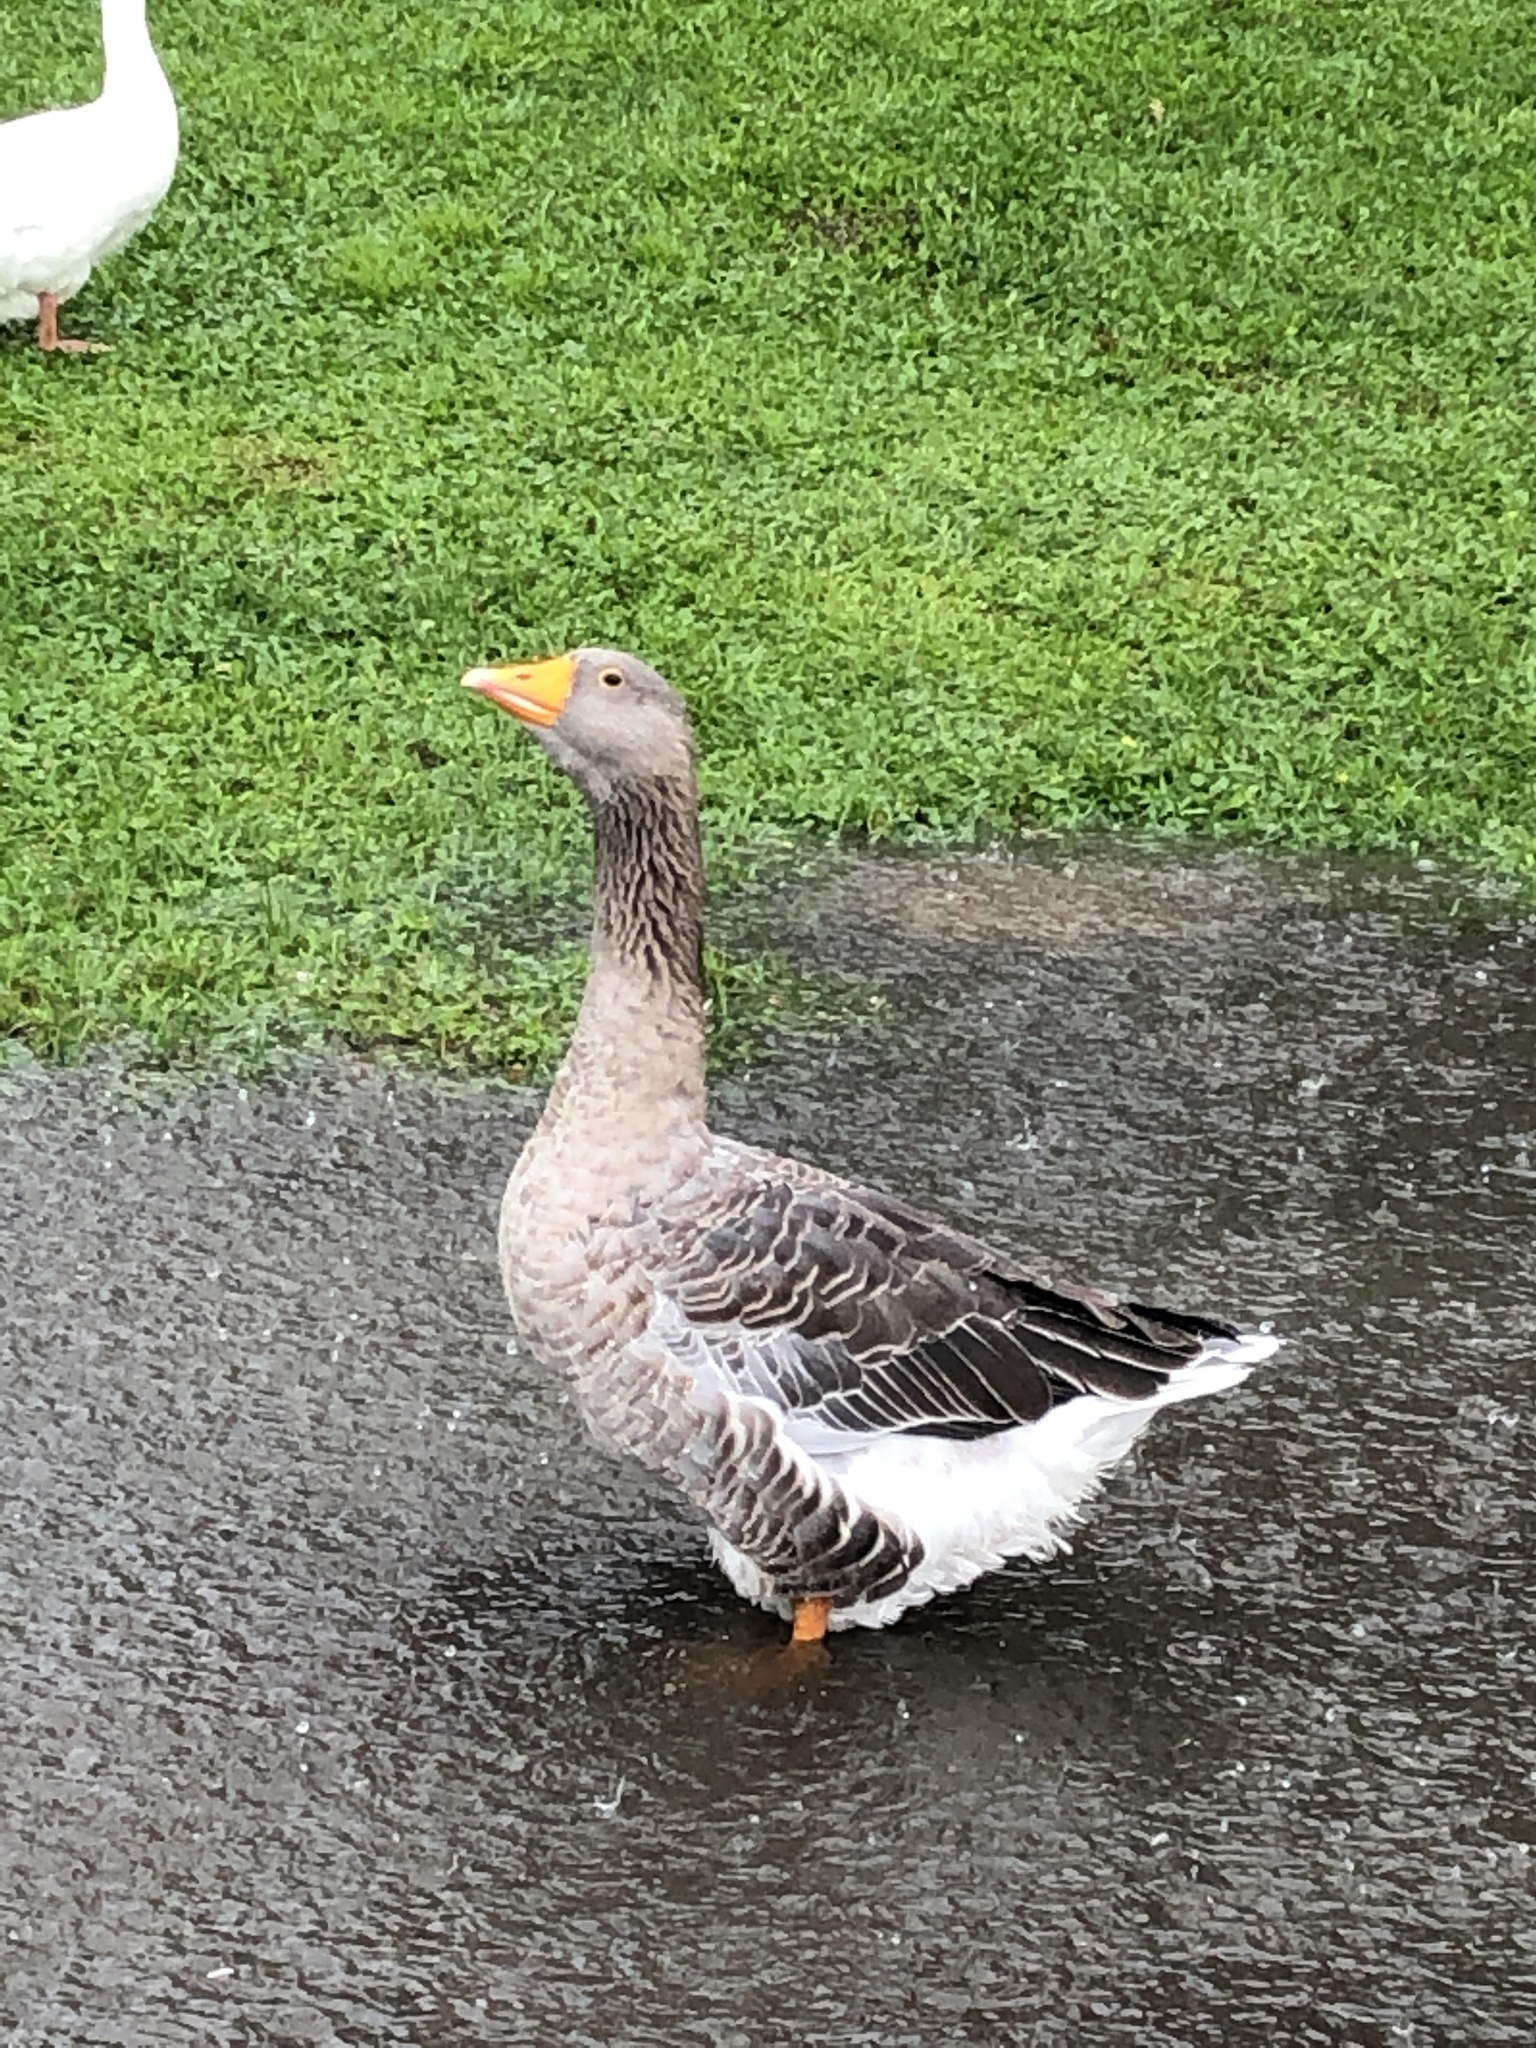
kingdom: Animalia
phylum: Chordata
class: Aves
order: Anseriformes
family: Anatidae
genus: Anser
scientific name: Anser anser
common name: Greylag goose
